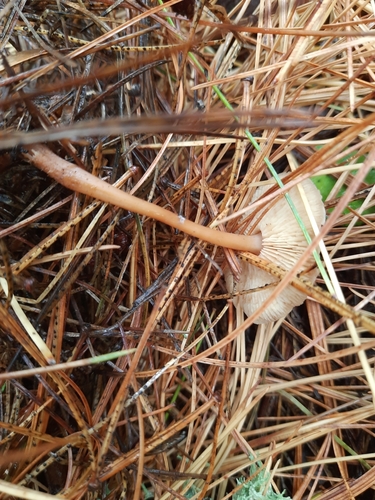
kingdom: Fungi
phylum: Basidiomycota
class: Agaricomycetes
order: Agaricales
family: Omphalotaceae
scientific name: Omphalotaceae
